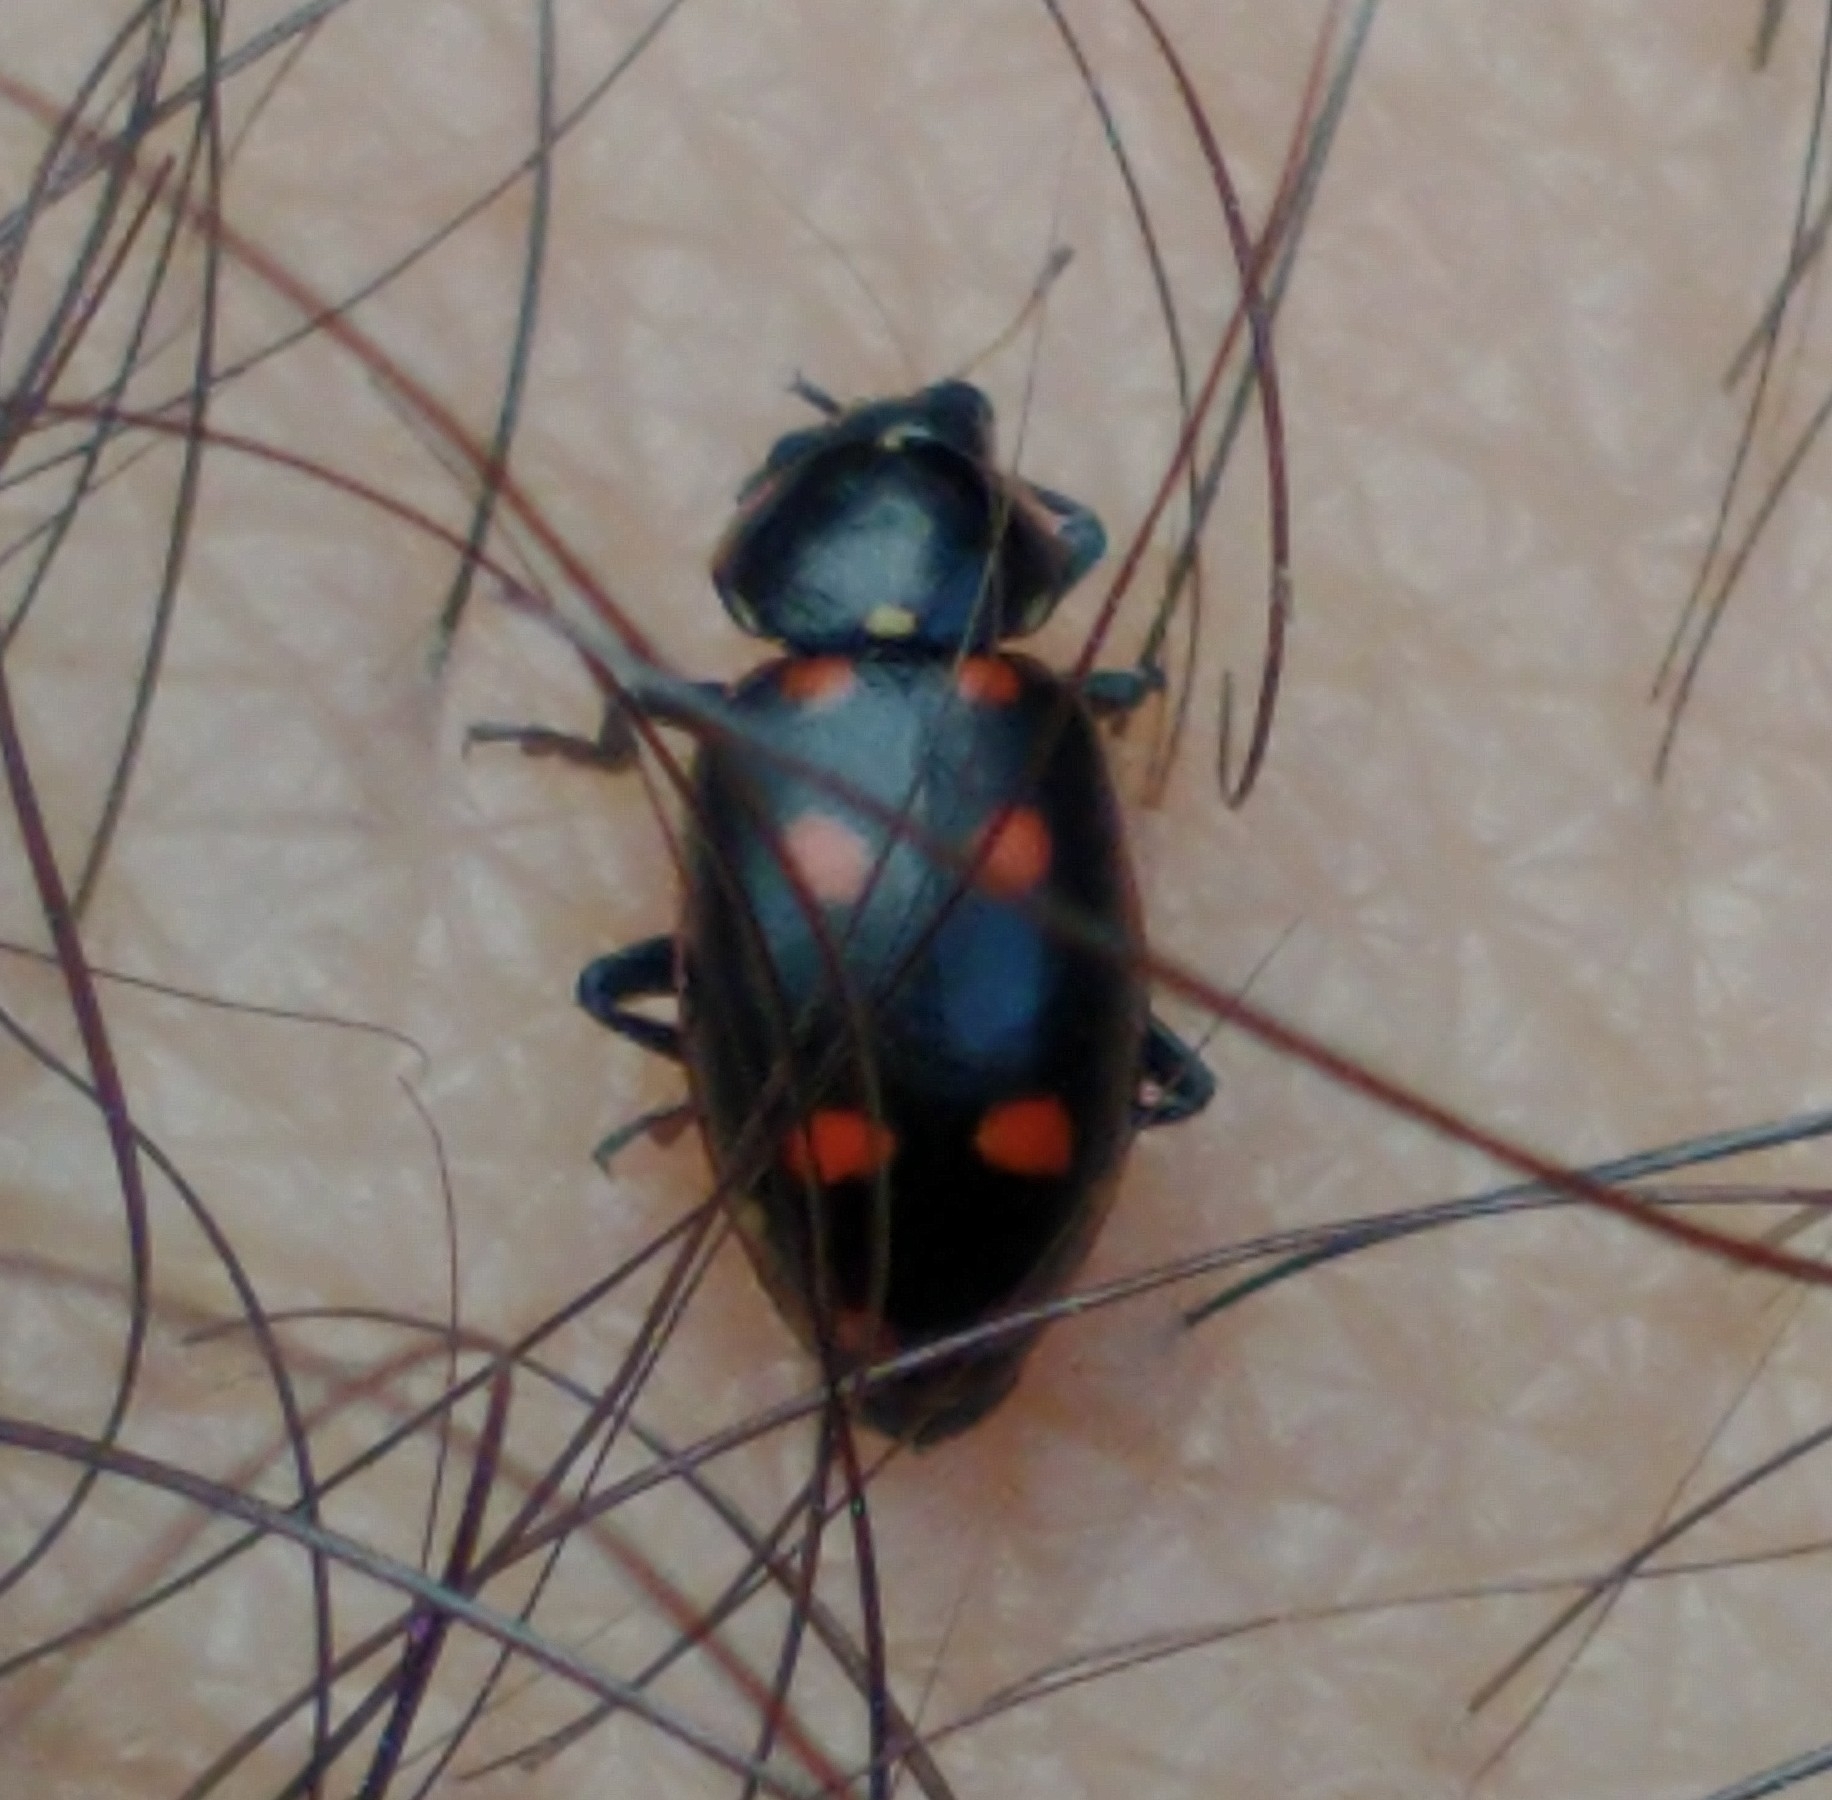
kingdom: Animalia
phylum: Arthropoda
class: Insecta
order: Coleoptera
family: Coccinellidae
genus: Eriopis
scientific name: Eriopis magellanica
